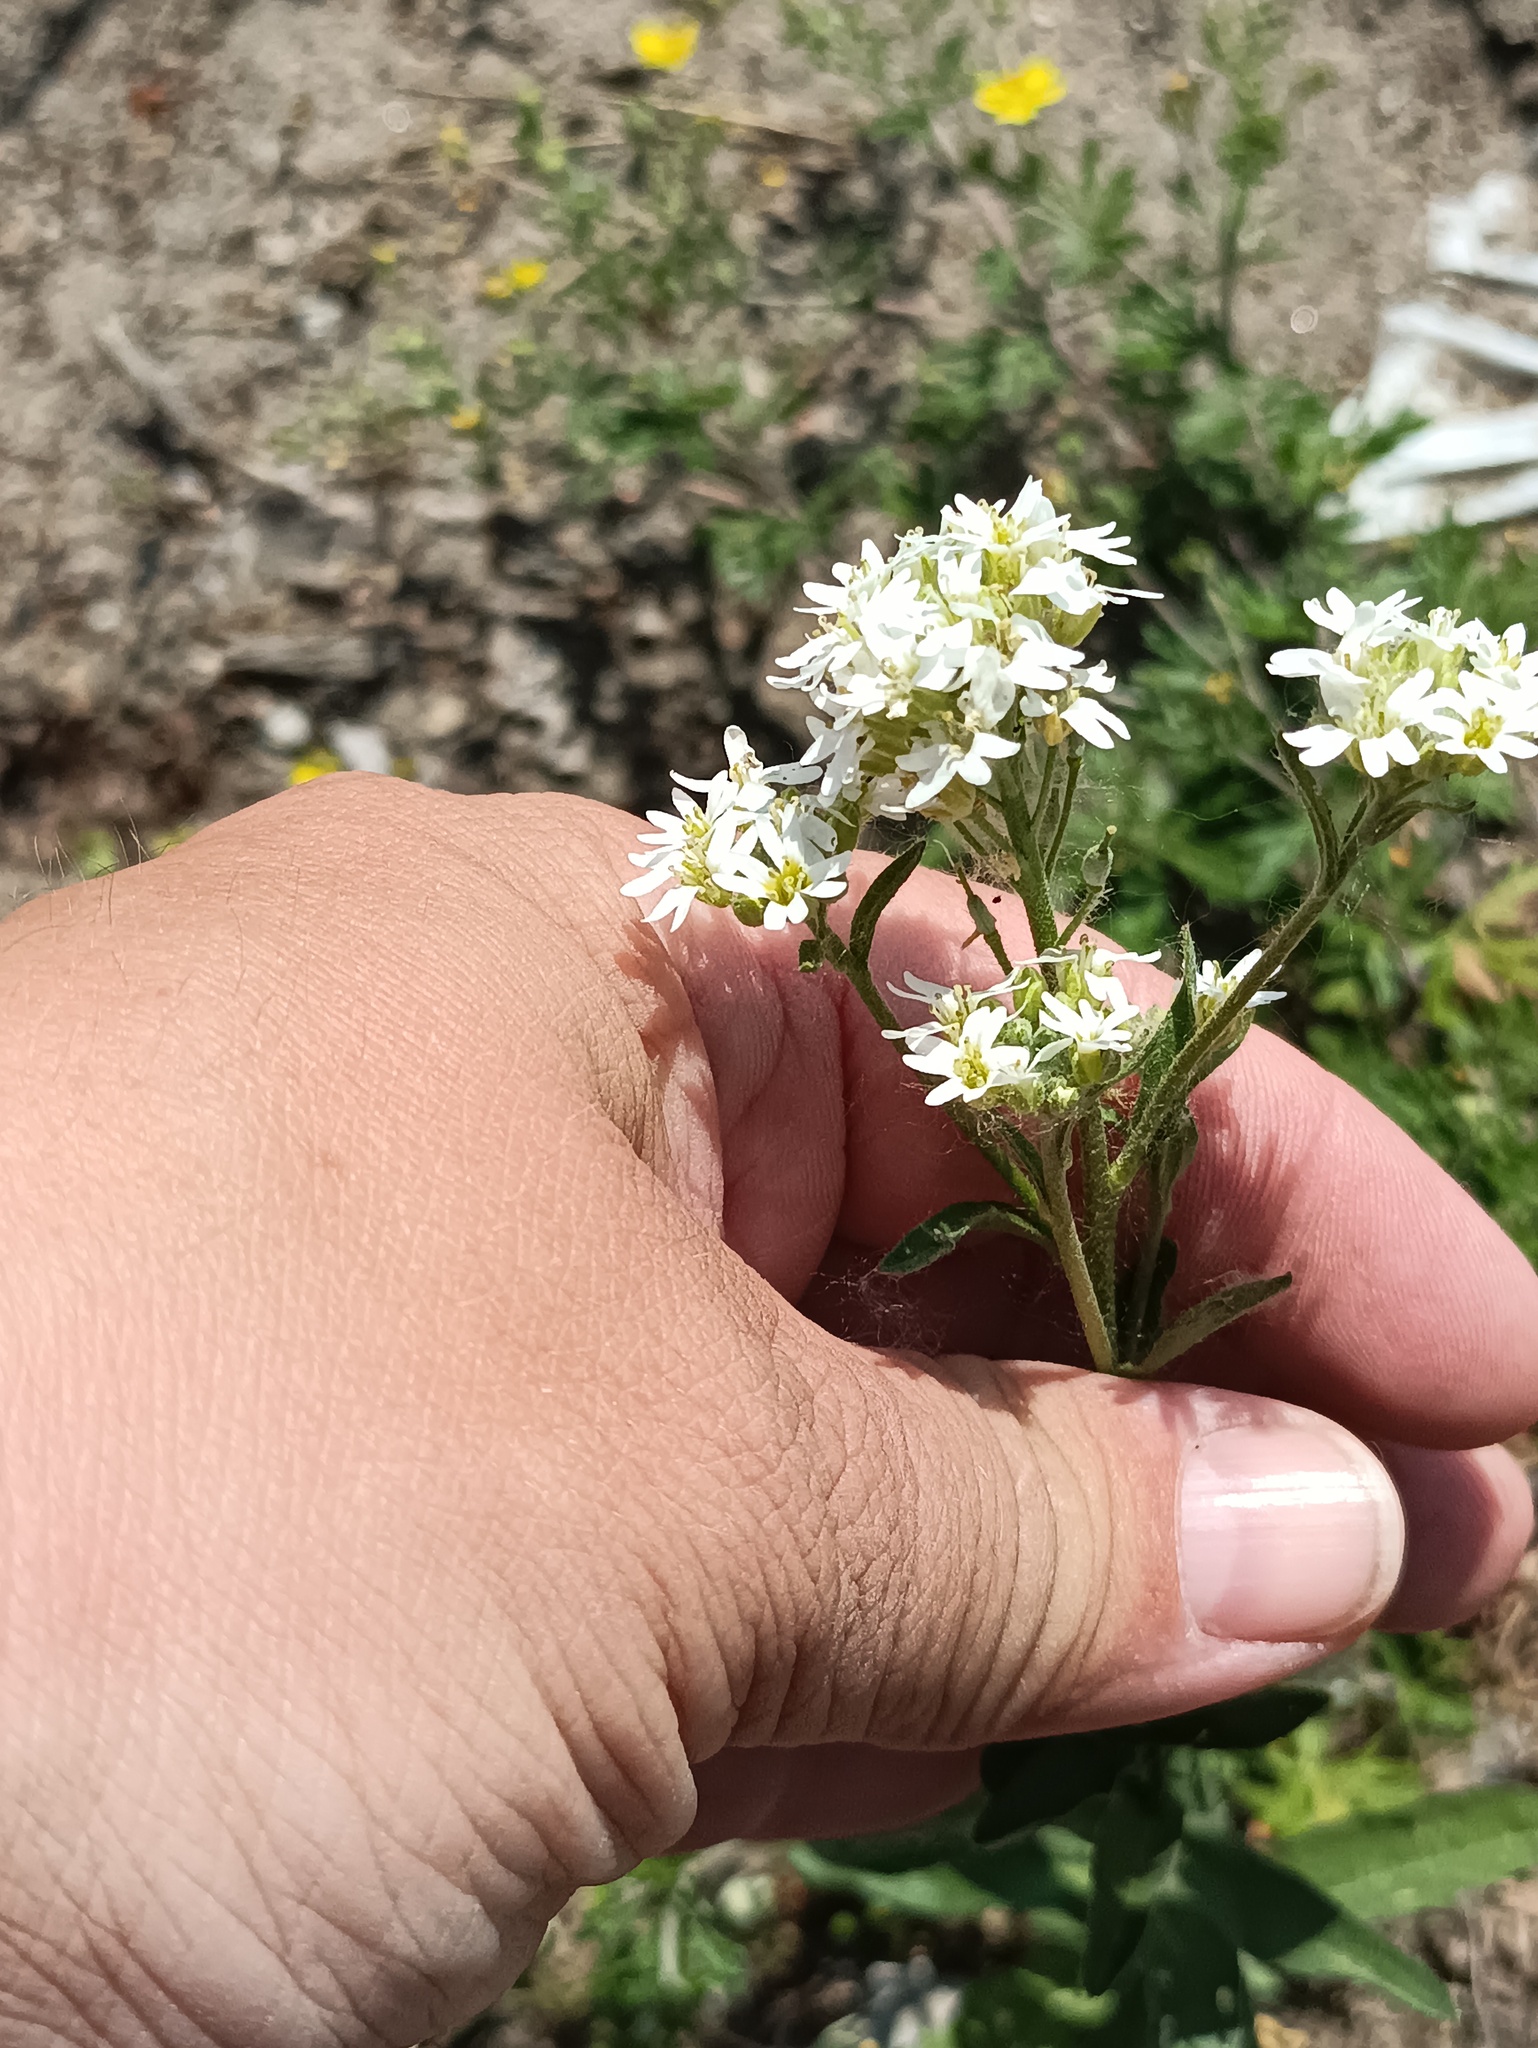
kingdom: Plantae
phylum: Tracheophyta
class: Magnoliopsida
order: Brassicales
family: Brassicaceae
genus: Berteroa
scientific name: Berteroa incana
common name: Hoary alison
